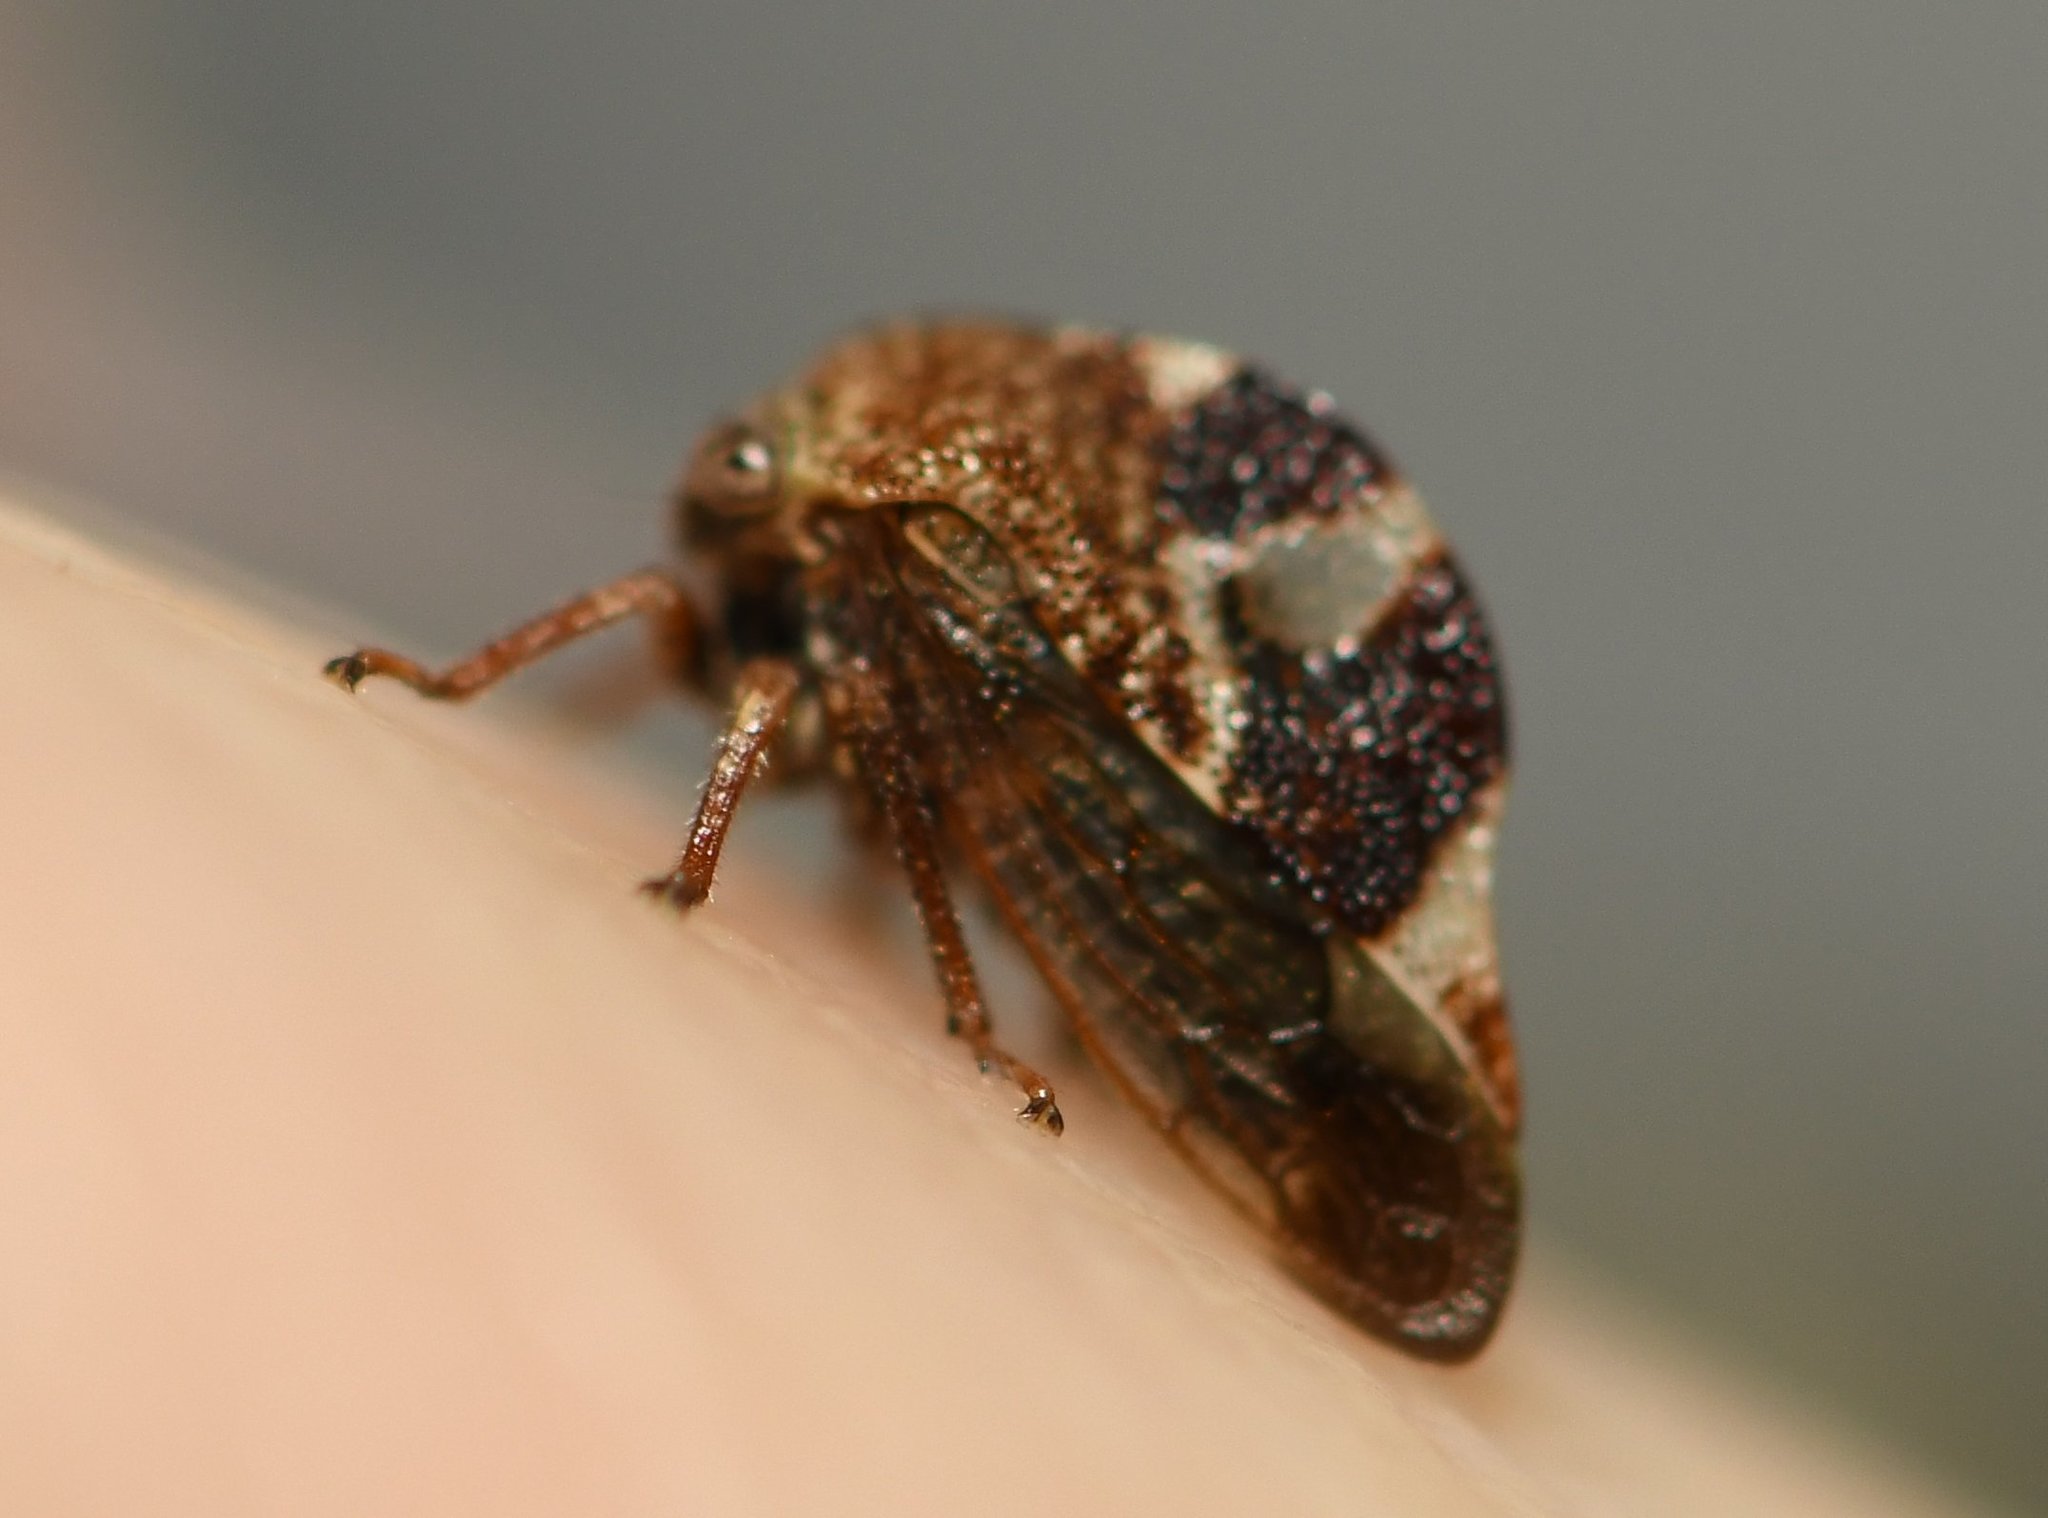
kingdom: Animalia
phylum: Arthropoda
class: Insecta
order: Hemiptera
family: Membracidae
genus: Cyrtolobus
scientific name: Cyrtolobus tuberosa
